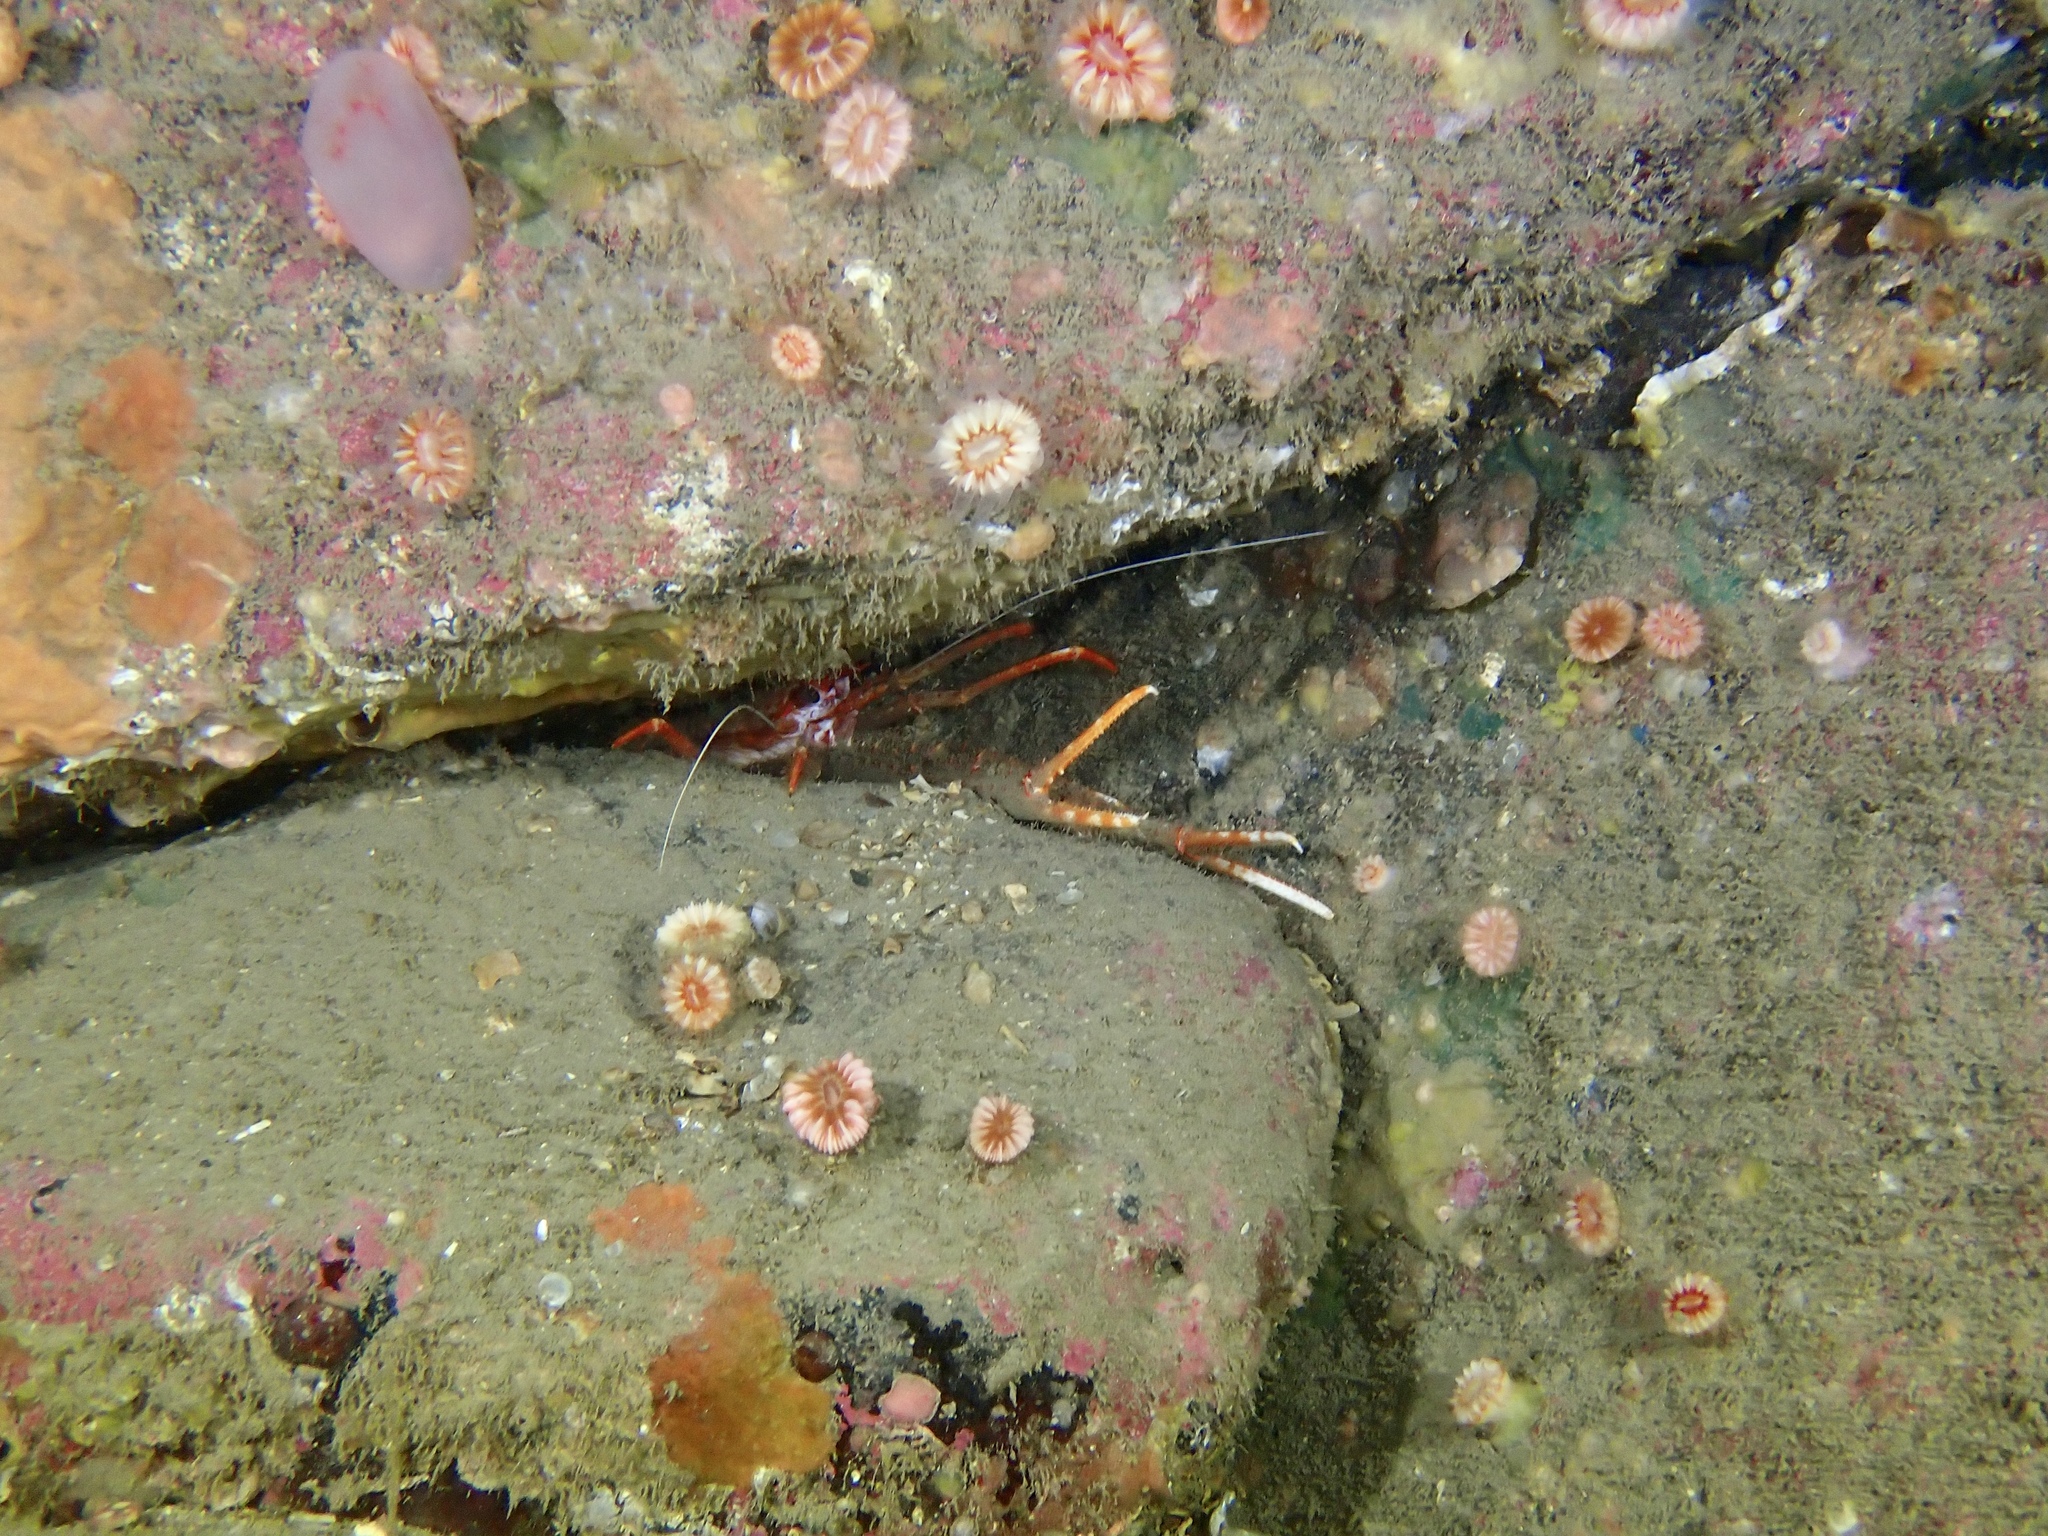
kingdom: Animalia
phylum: Arthropoda
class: Malacostraca
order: Decapoda
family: Munididae
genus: Munida
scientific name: Munida rugosa
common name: Rugose squat lobster
